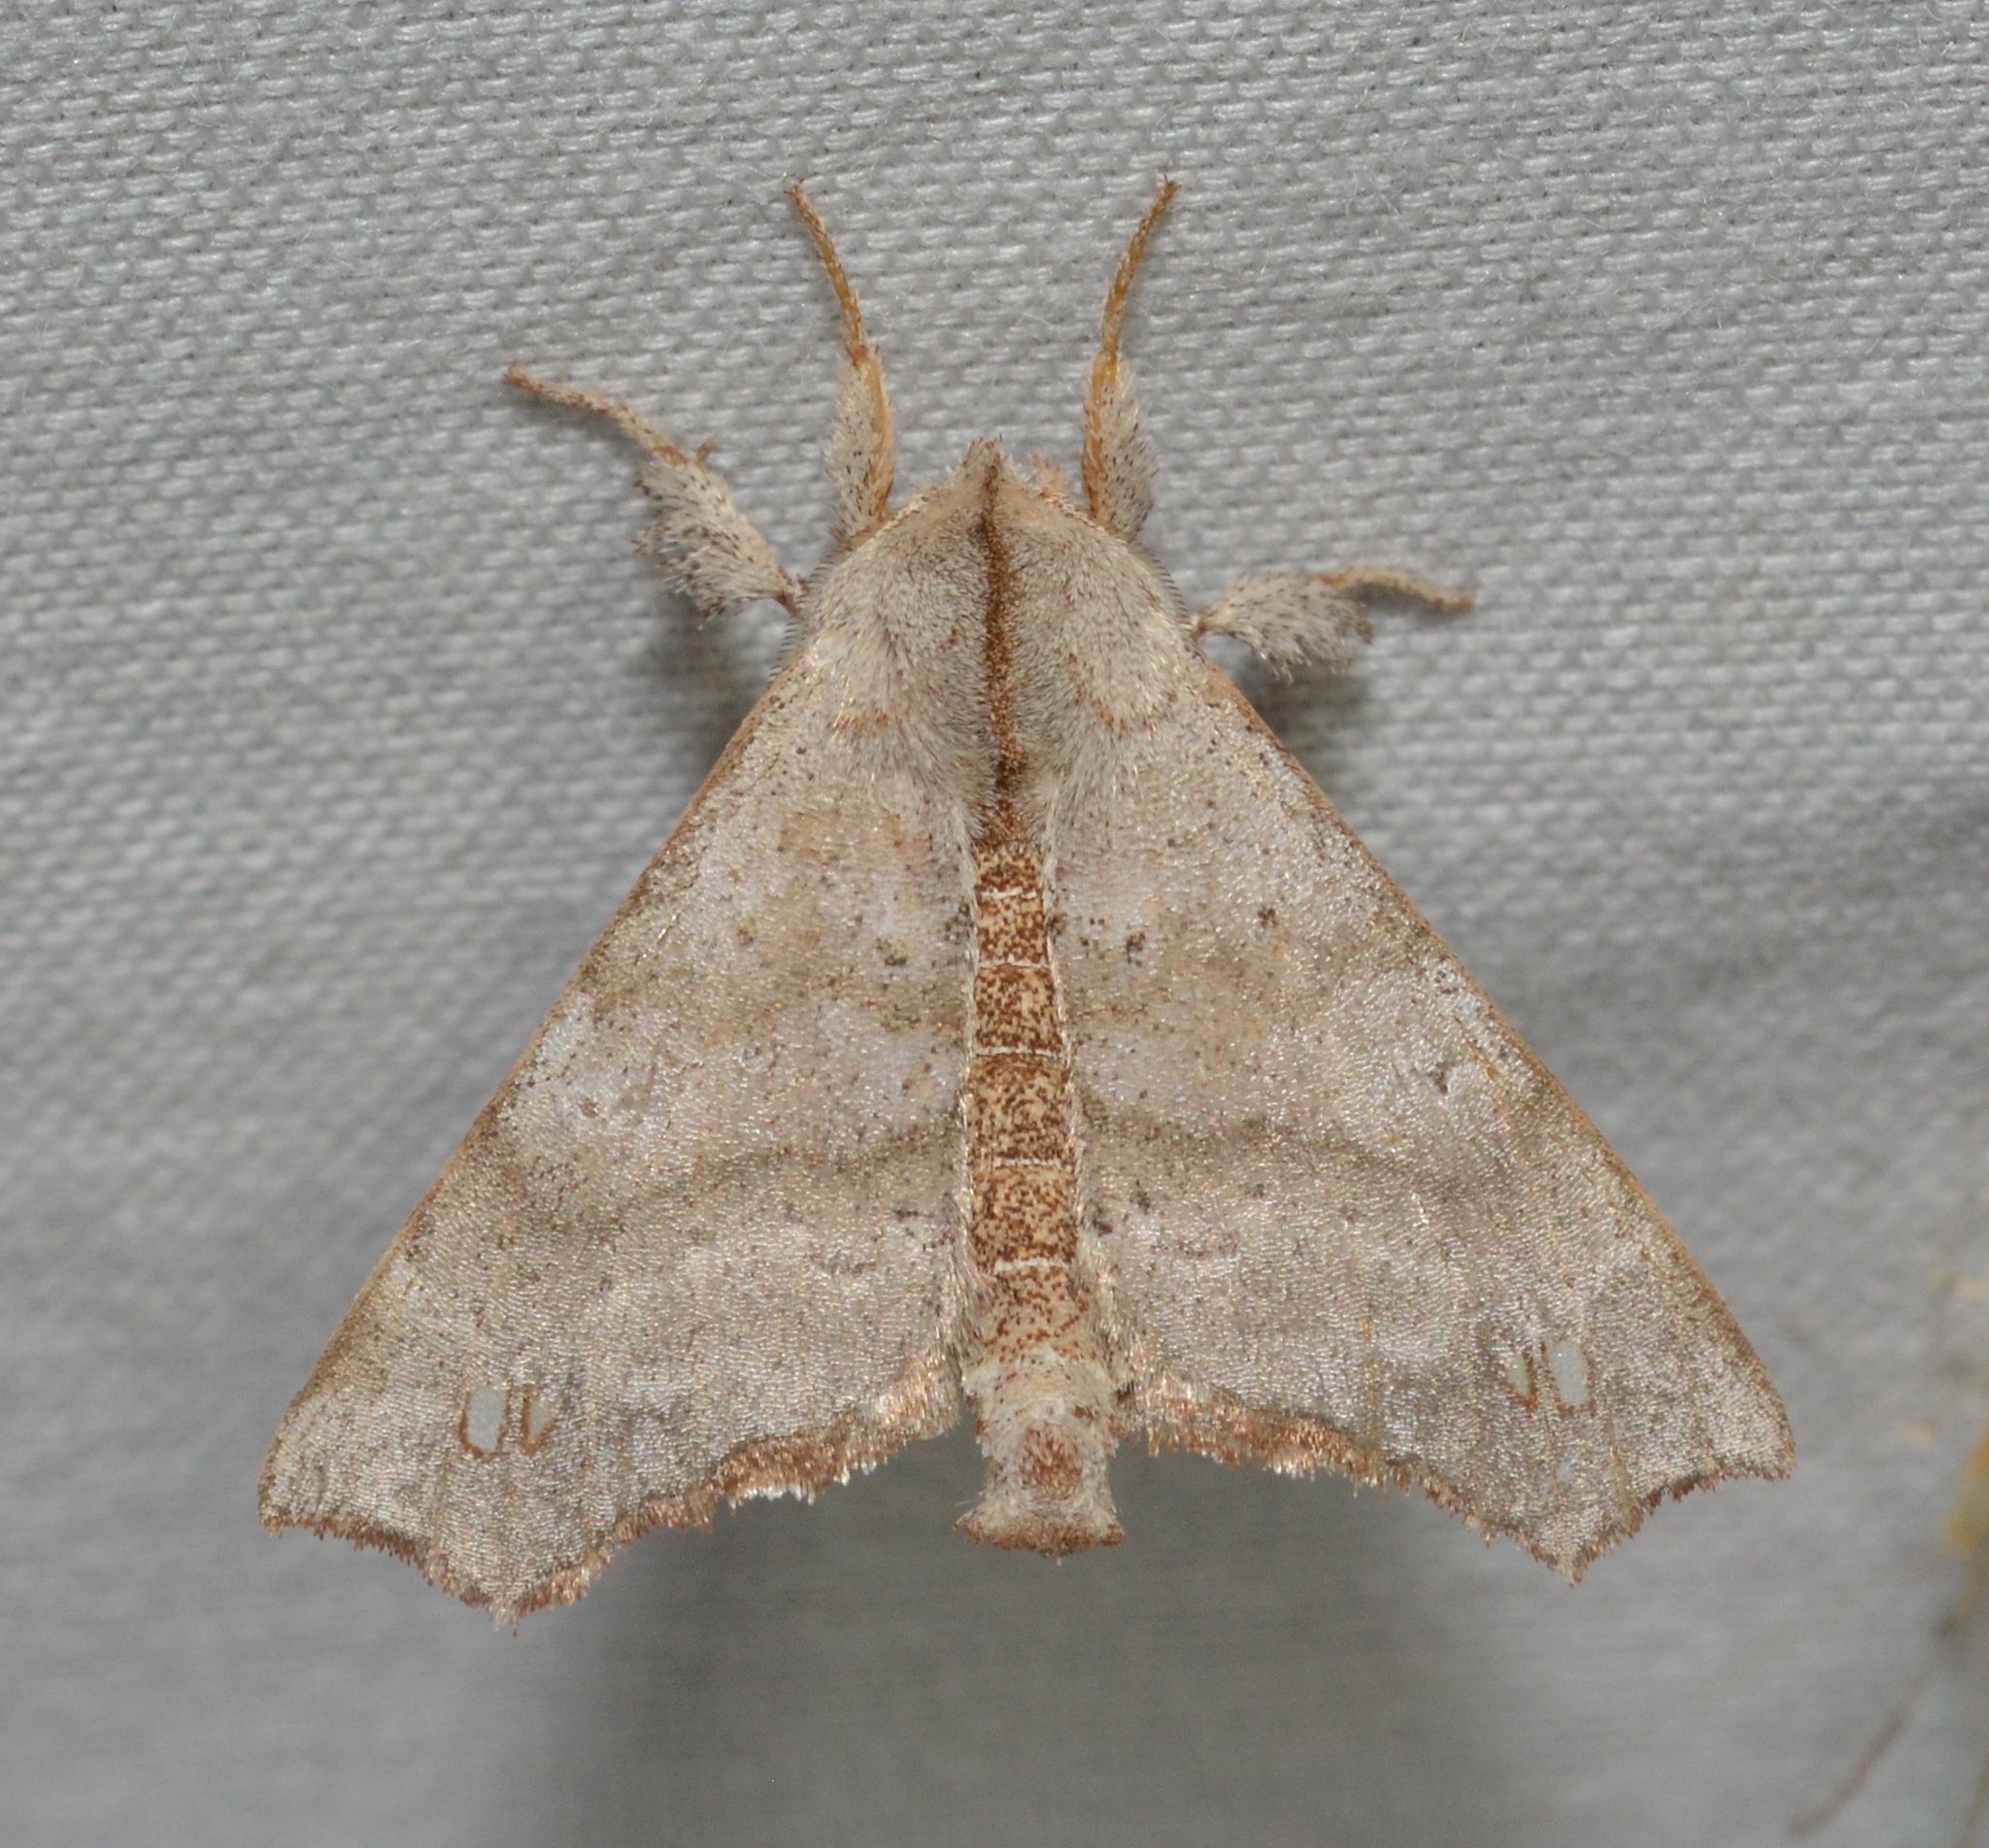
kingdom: Animalia
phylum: Arthropoda
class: Insecta
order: Lepidoptera
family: Apatelodidae
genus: Olceclostera
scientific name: Olceclostera angelica
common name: Angel moth
